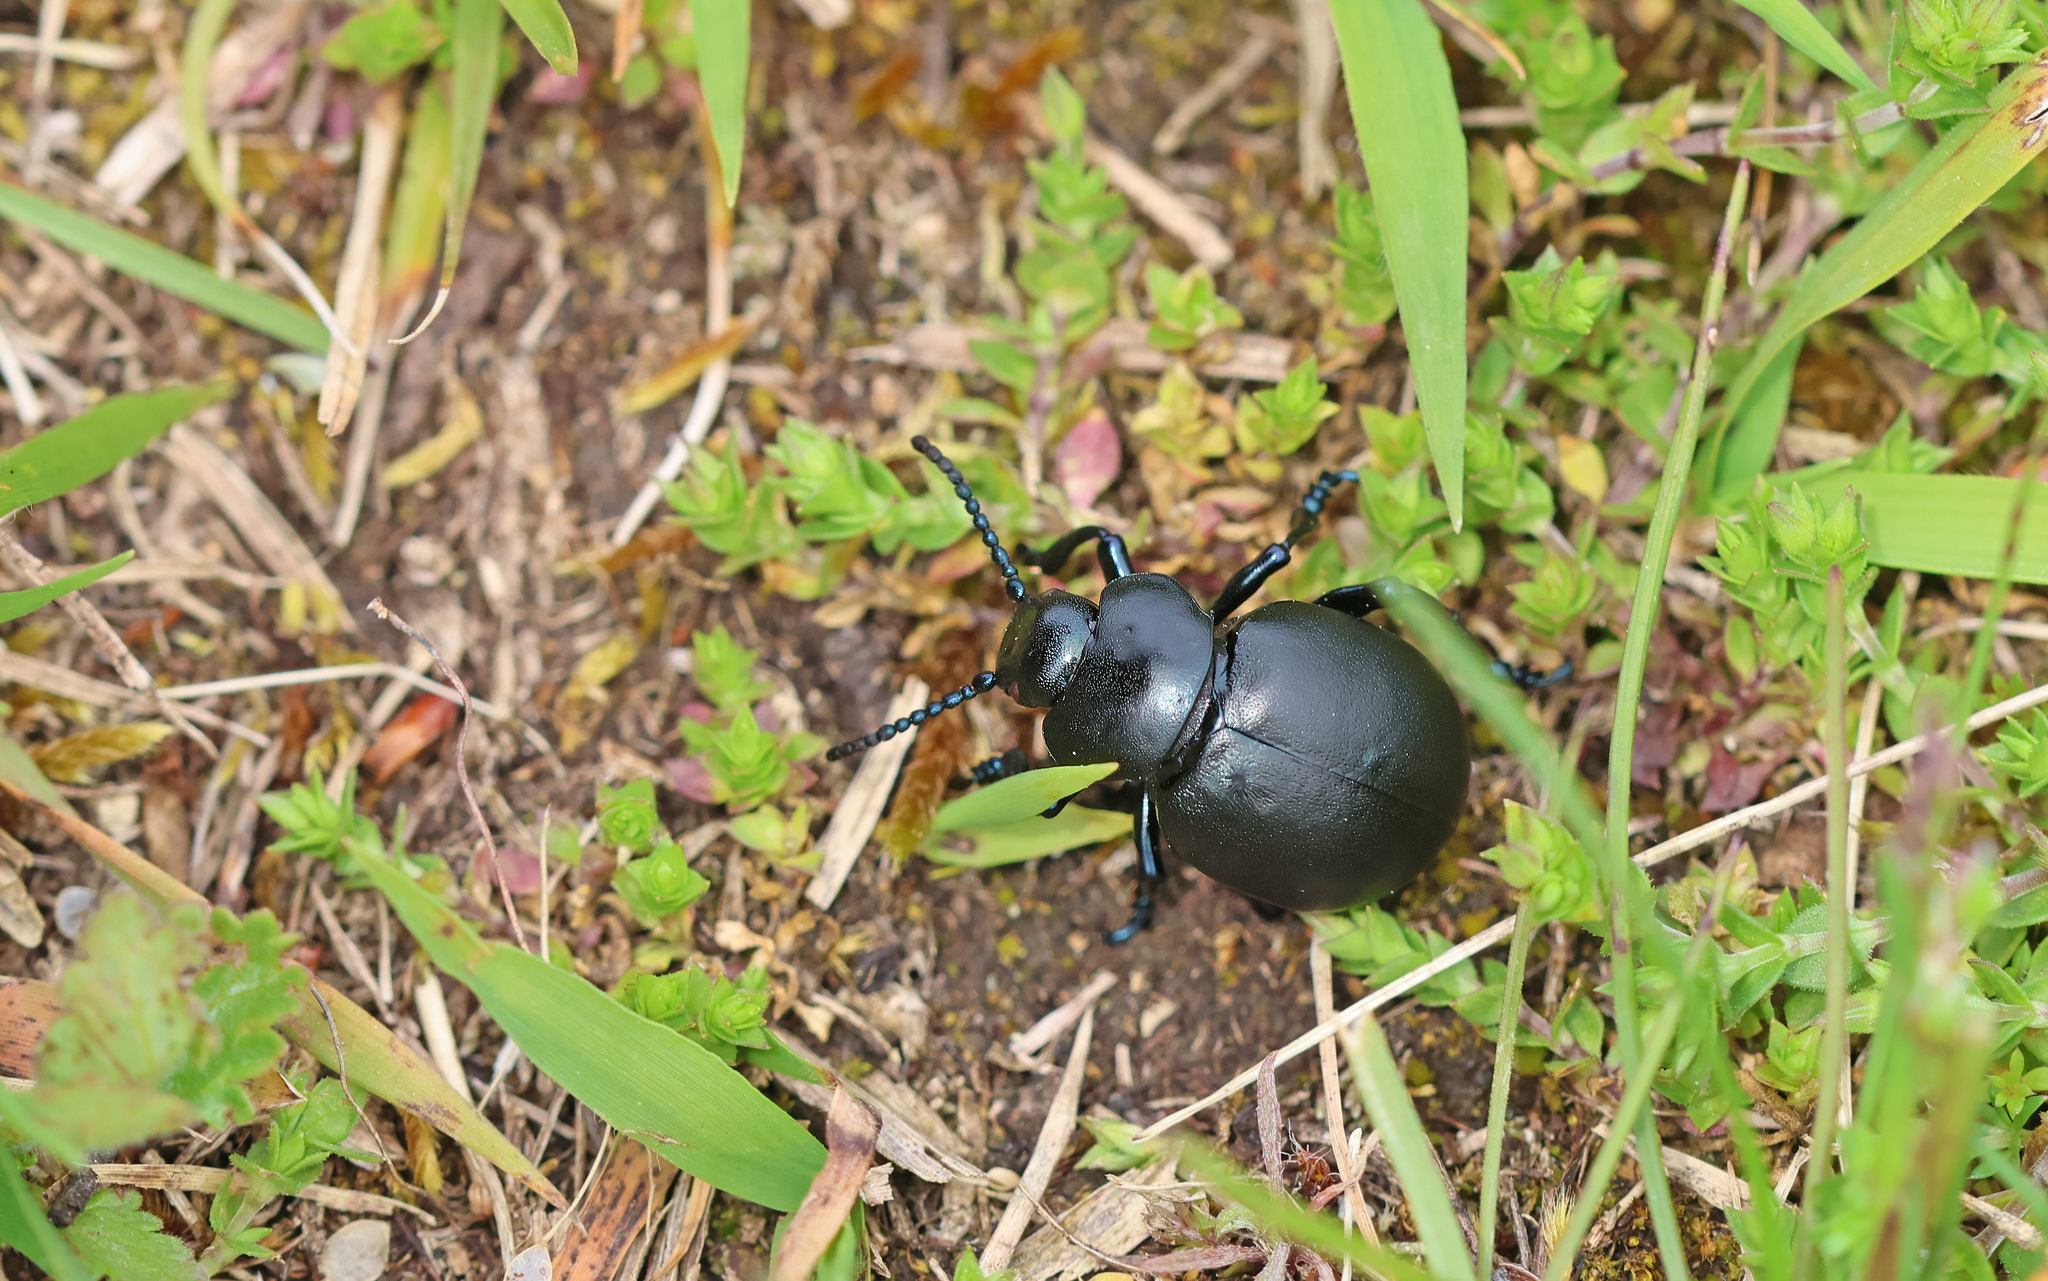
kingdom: Animalia
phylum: Arthropoda
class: Insecta
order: Coleoptera
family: Chrysomelidae
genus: Timarcha
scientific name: Timarcha tenebricosa
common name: Bloody-nosed beetle
